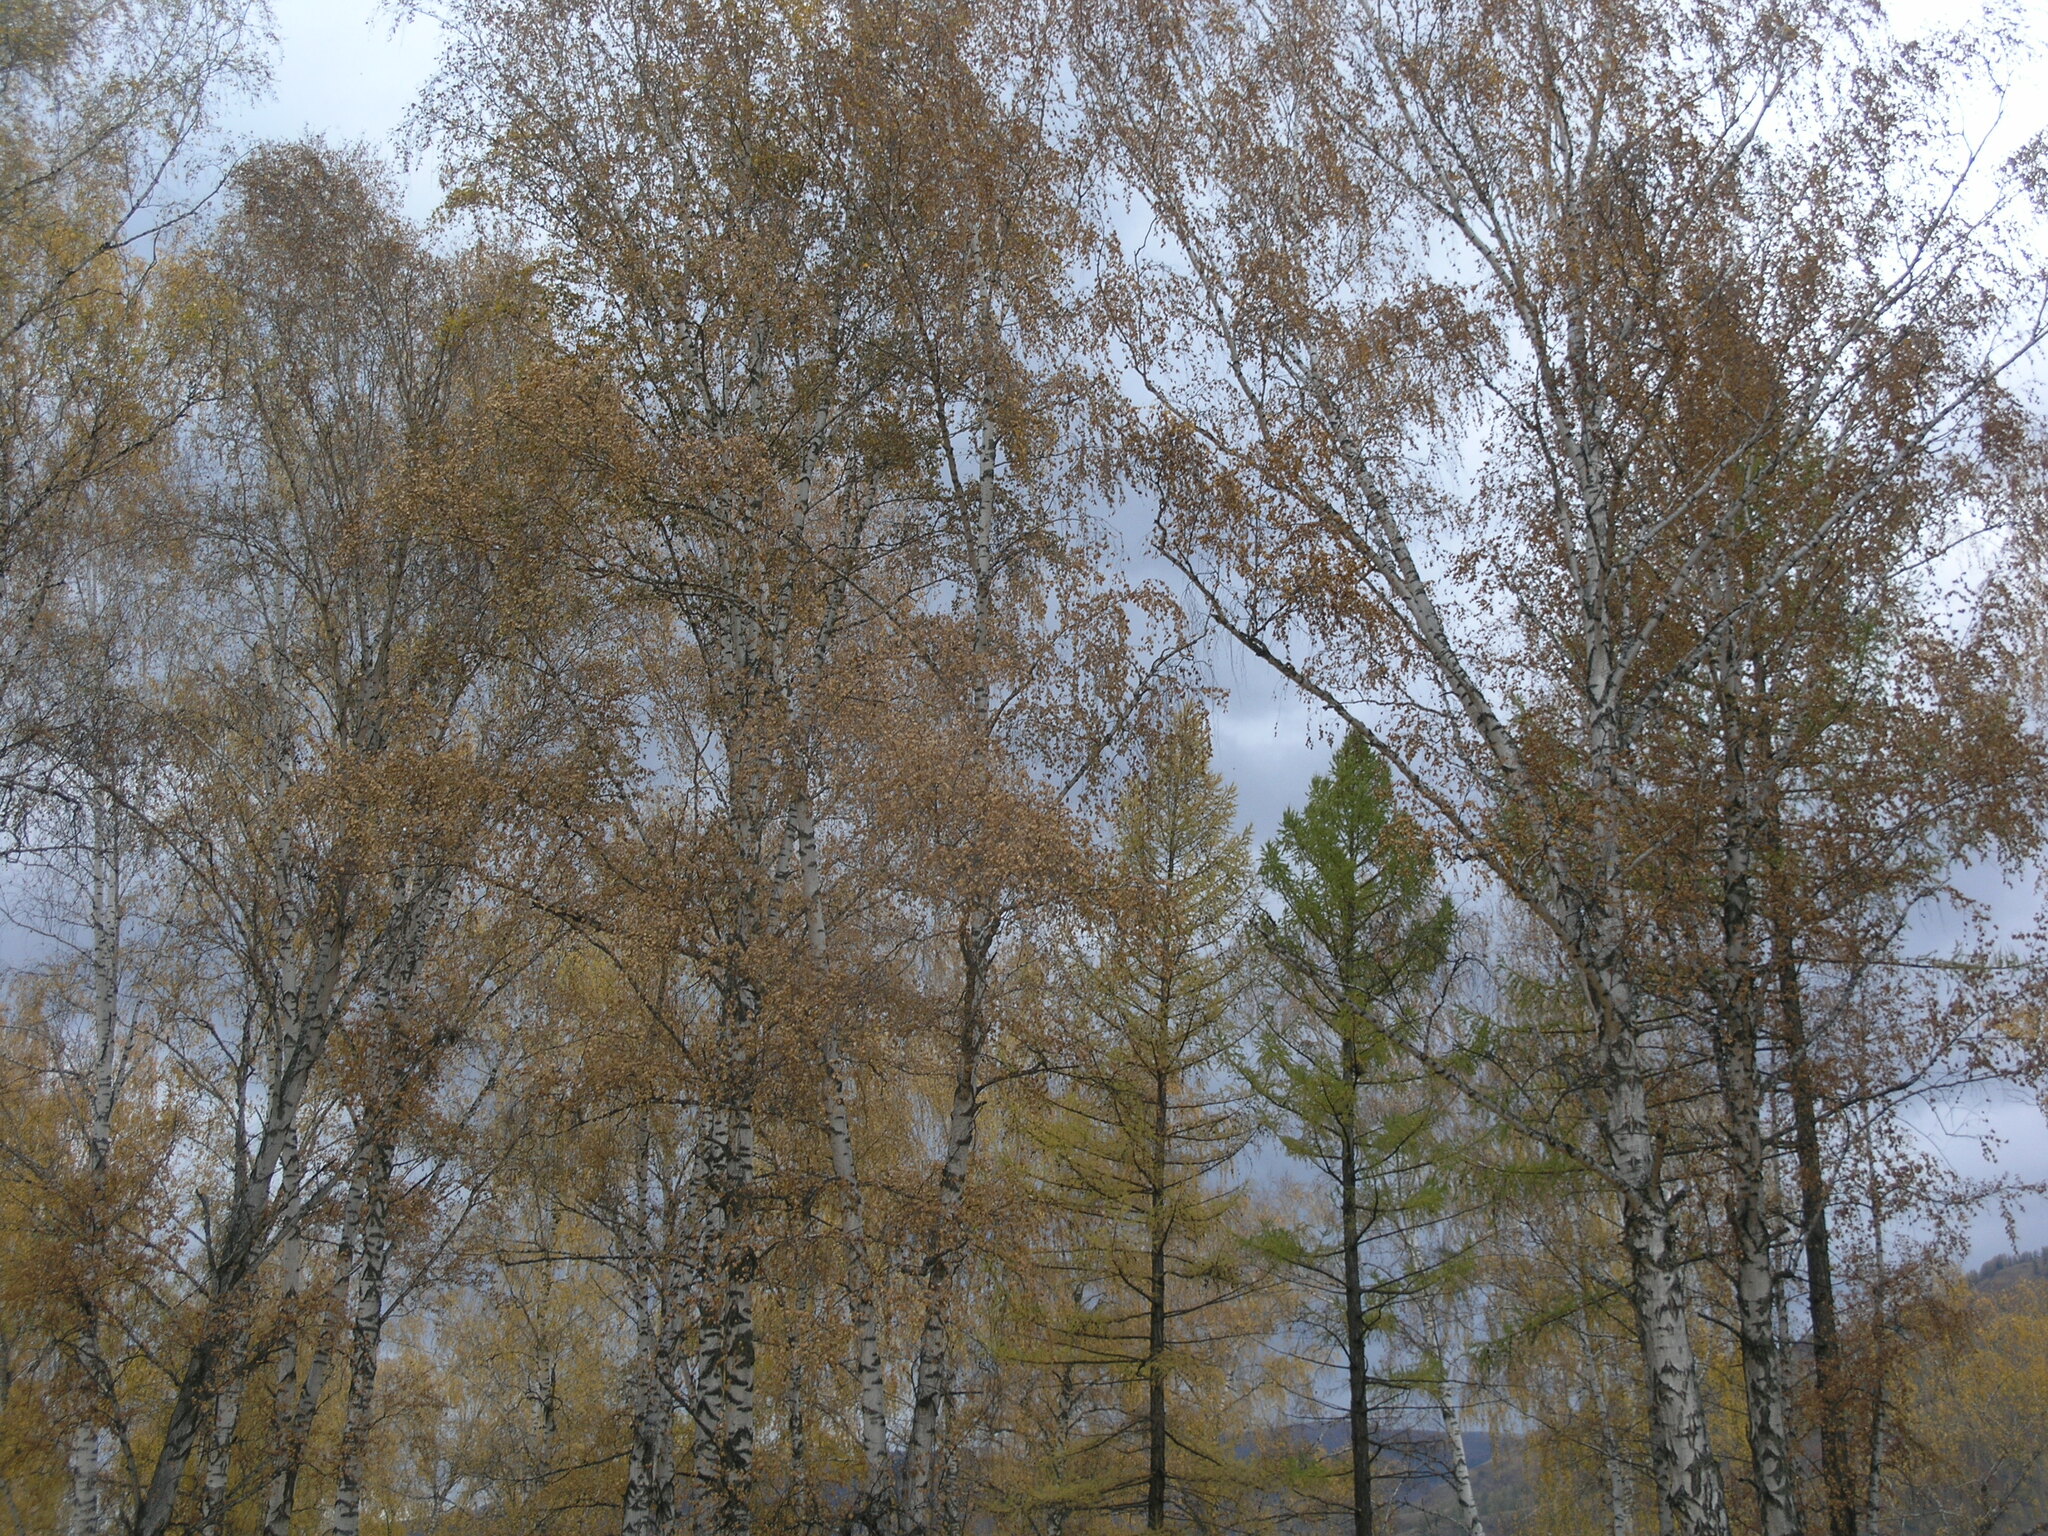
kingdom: Plantae
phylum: Tracheophyta
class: Magnoliopsida
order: Fagales
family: Betulaceae
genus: Betula
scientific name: Betula pendula
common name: Silver birch
